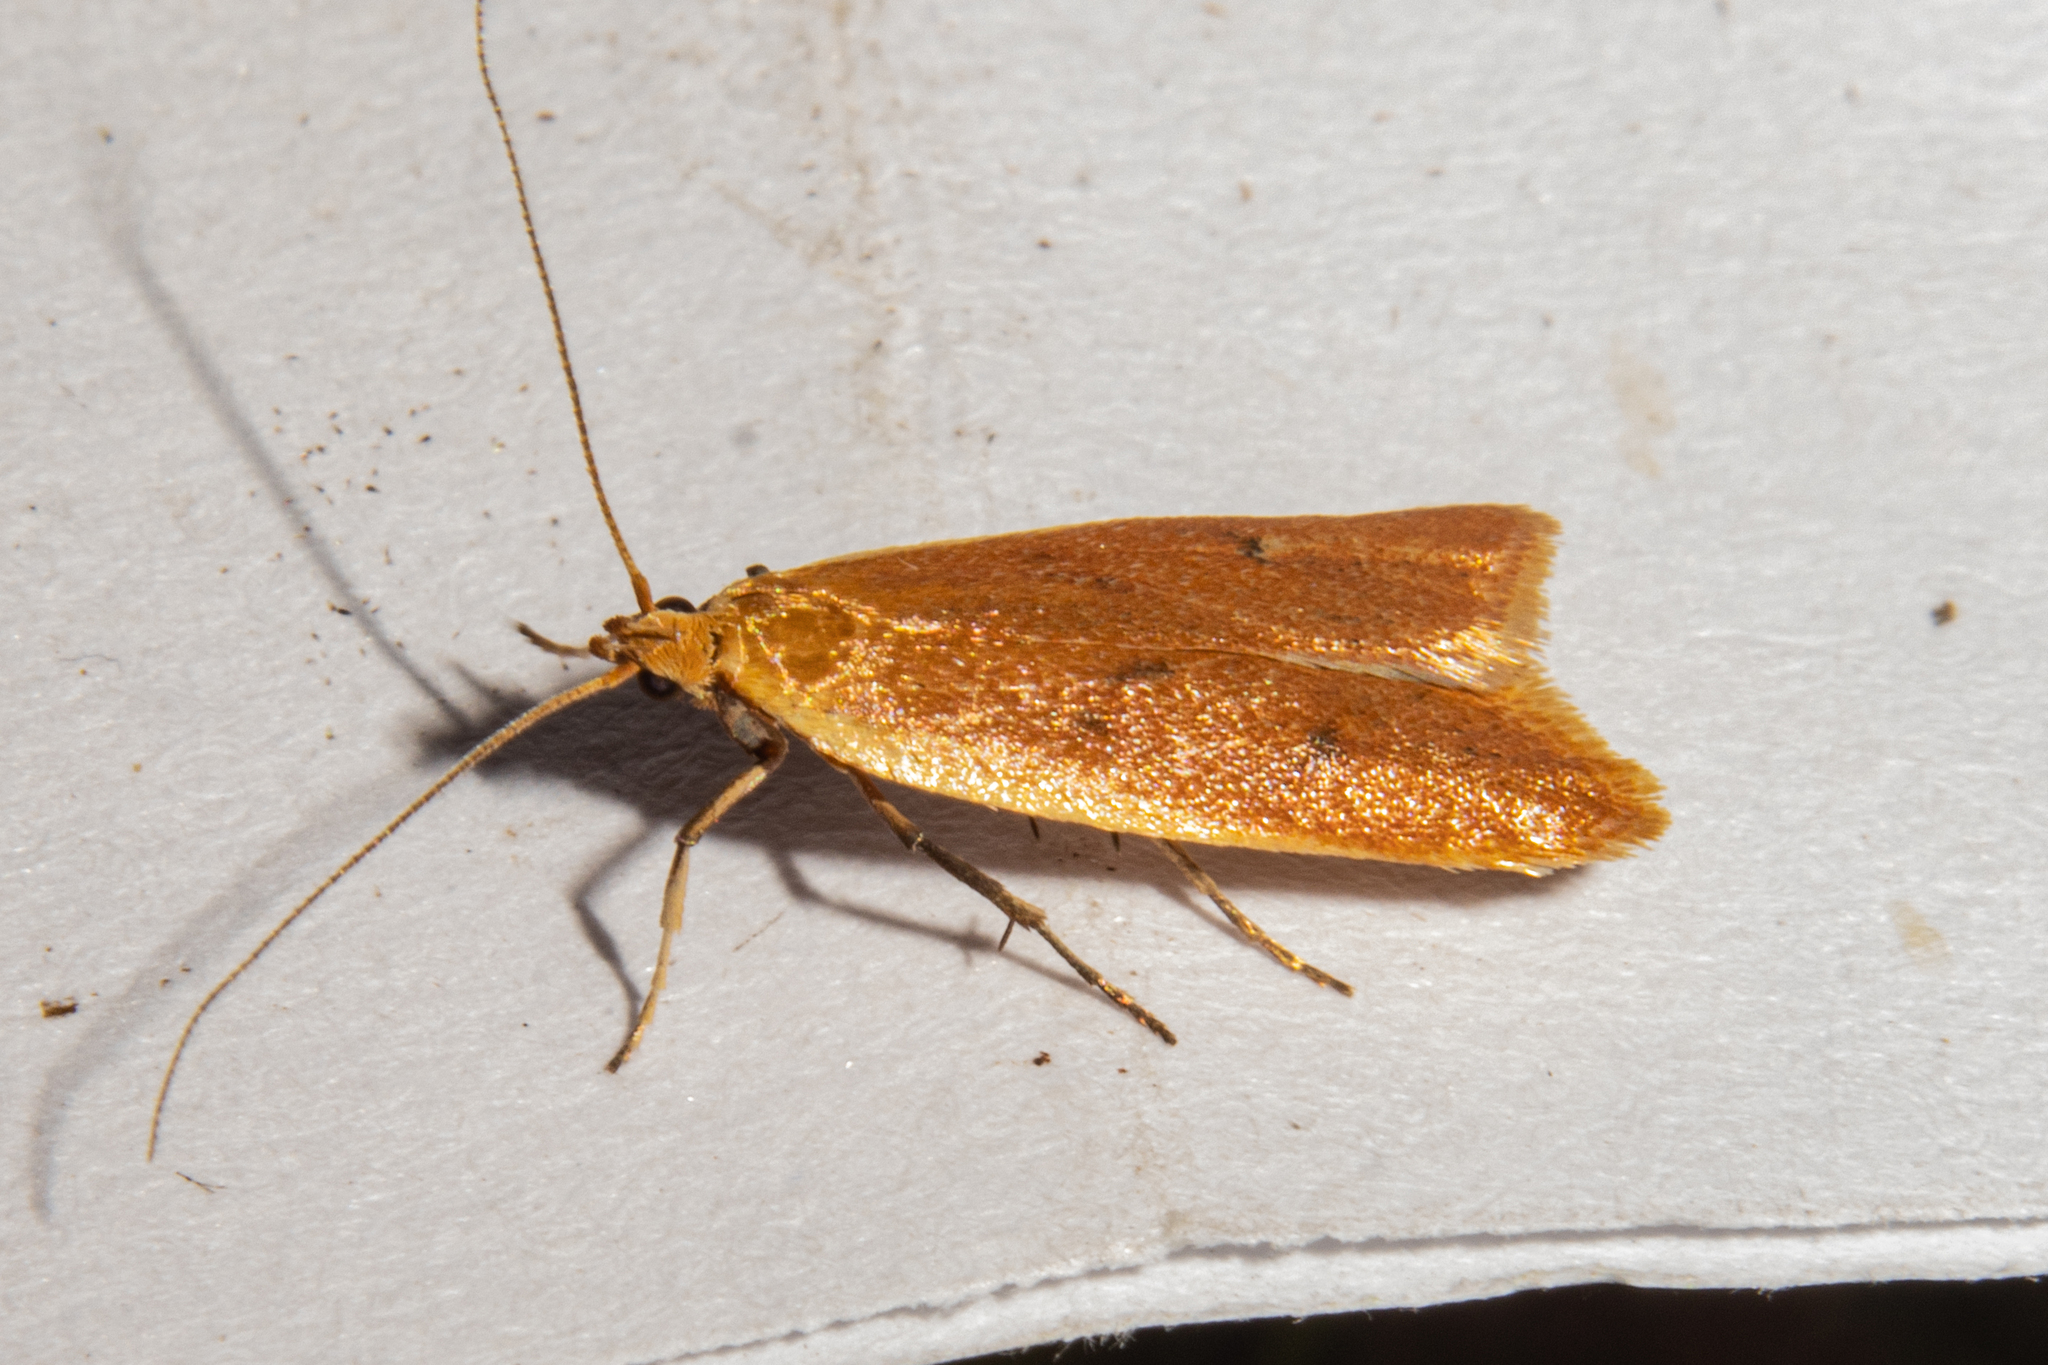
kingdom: Animalia
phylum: Arthropoda
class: Insecta
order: Lepidoptera
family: Oecophoridae
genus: Gymnobathra
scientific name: Gymnobathra parca
